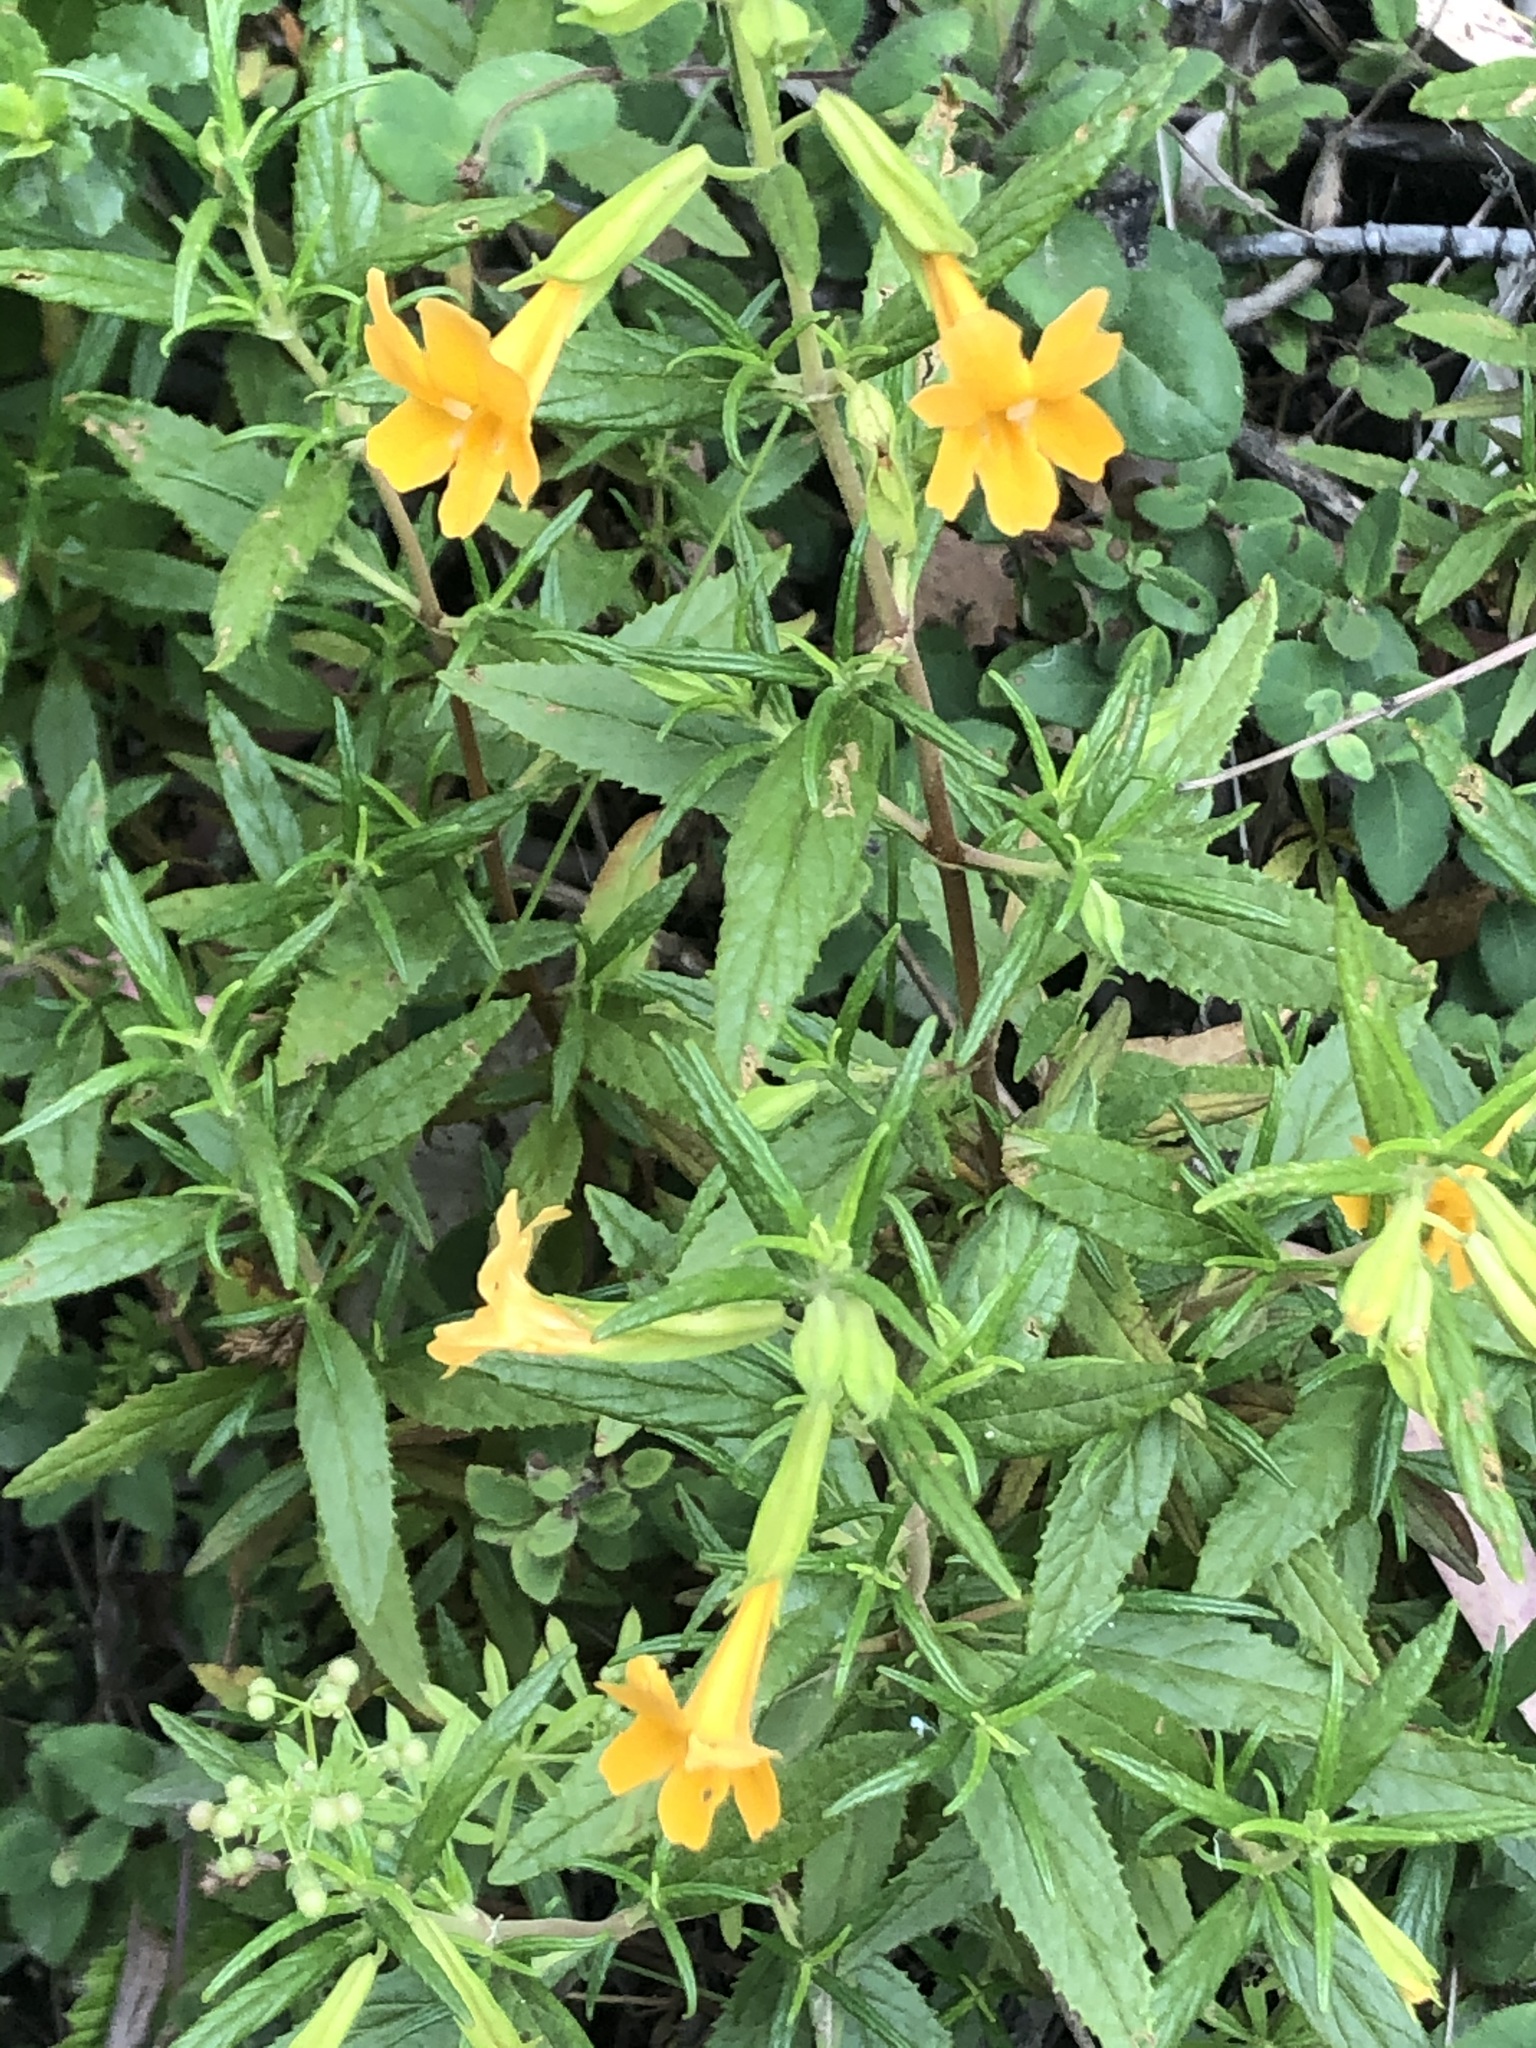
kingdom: Plantae
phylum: Tracheophyta
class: Magnoliopsida
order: Lamiales
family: Phrymaceae
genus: Diplacus
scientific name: Diplacus aurantiacus
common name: Bush monkey-flower
